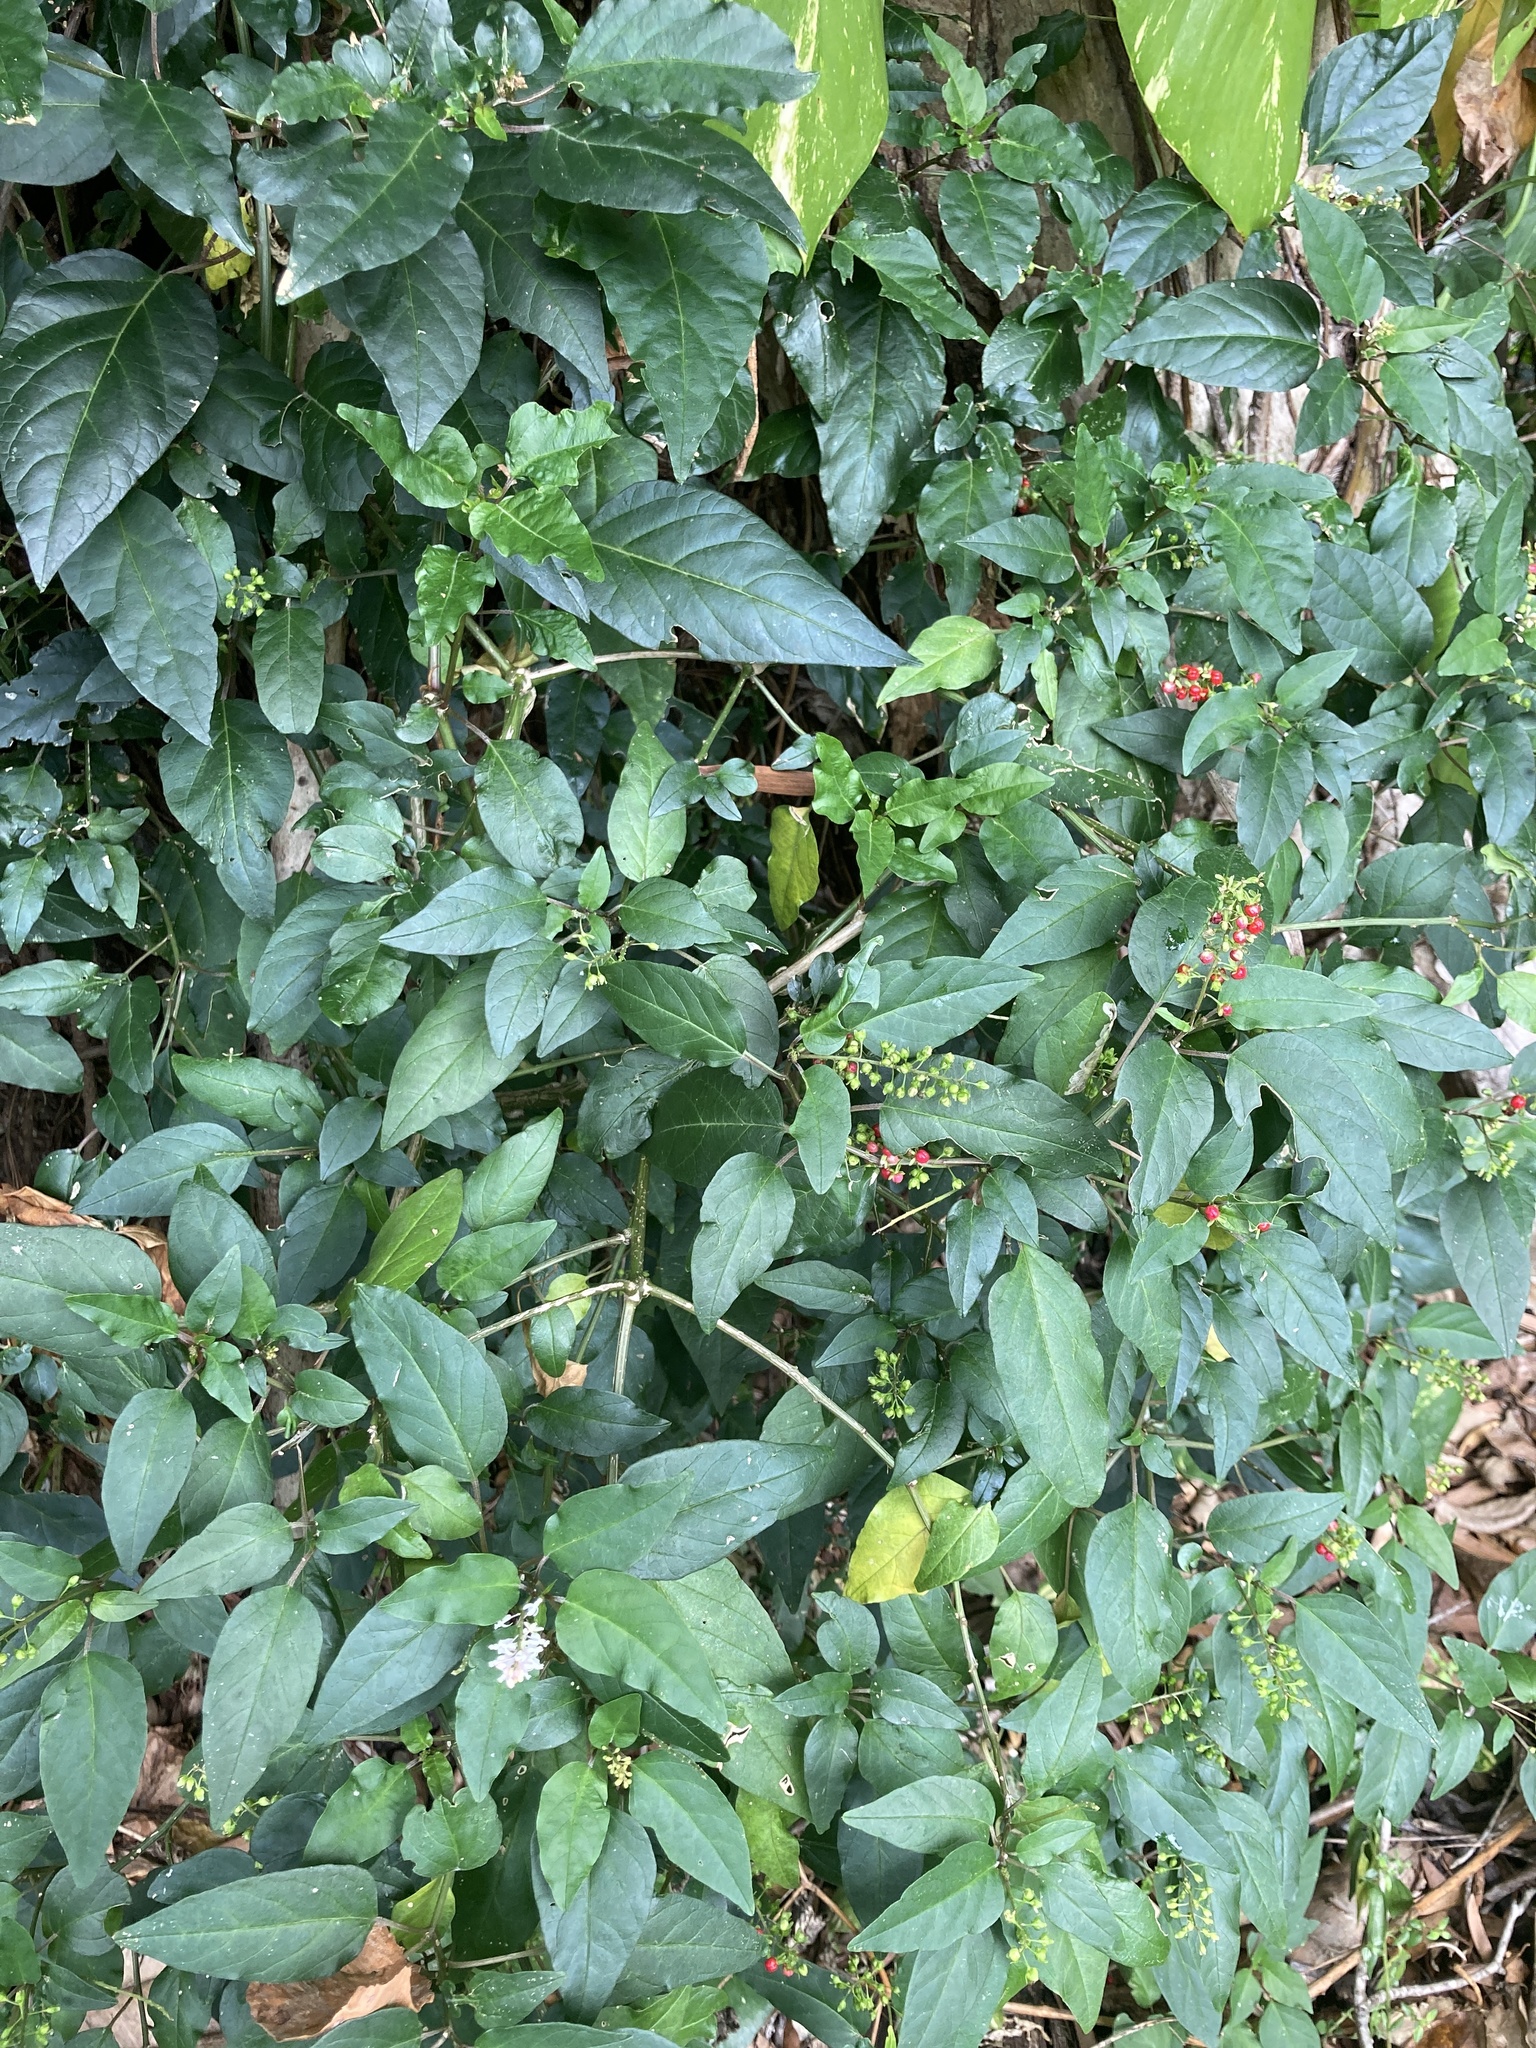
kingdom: Plantae
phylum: Tracheophyta
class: Magnoliopsida
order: Caryophyllales
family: Phytolaccaceae
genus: Rivina
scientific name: Rivina humilis
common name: Rougeplant
